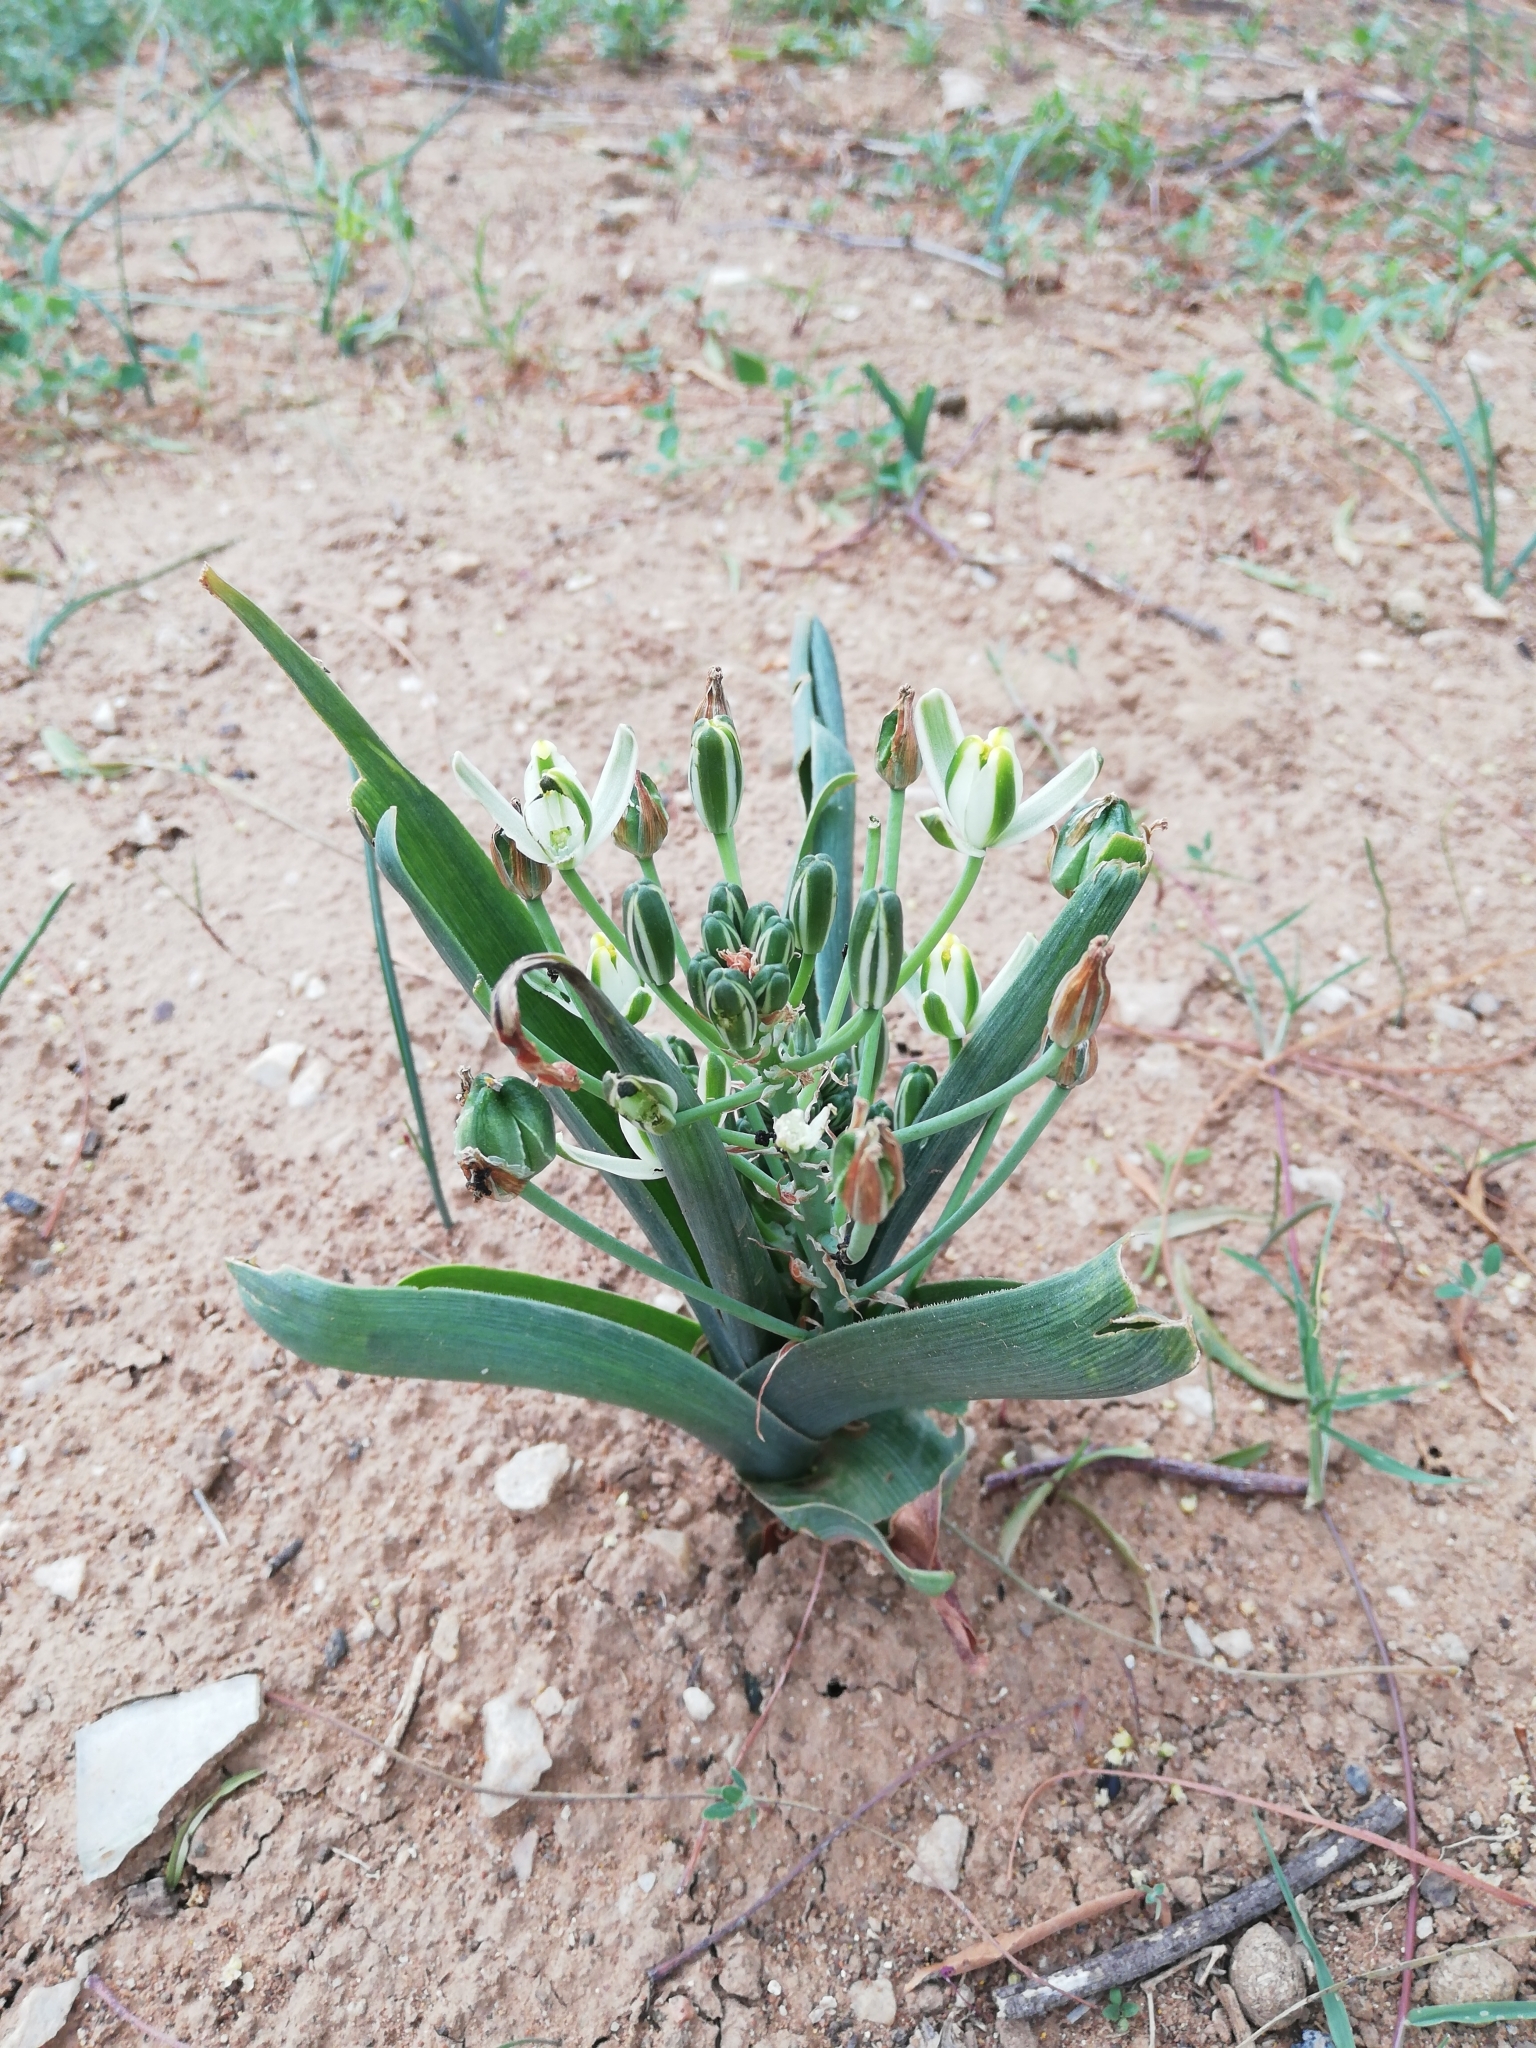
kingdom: Plantae
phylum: Tracheophyta
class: Liliopsida
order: Asparagales
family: Asparagaceae
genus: Albuca
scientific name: Albuca setosa
